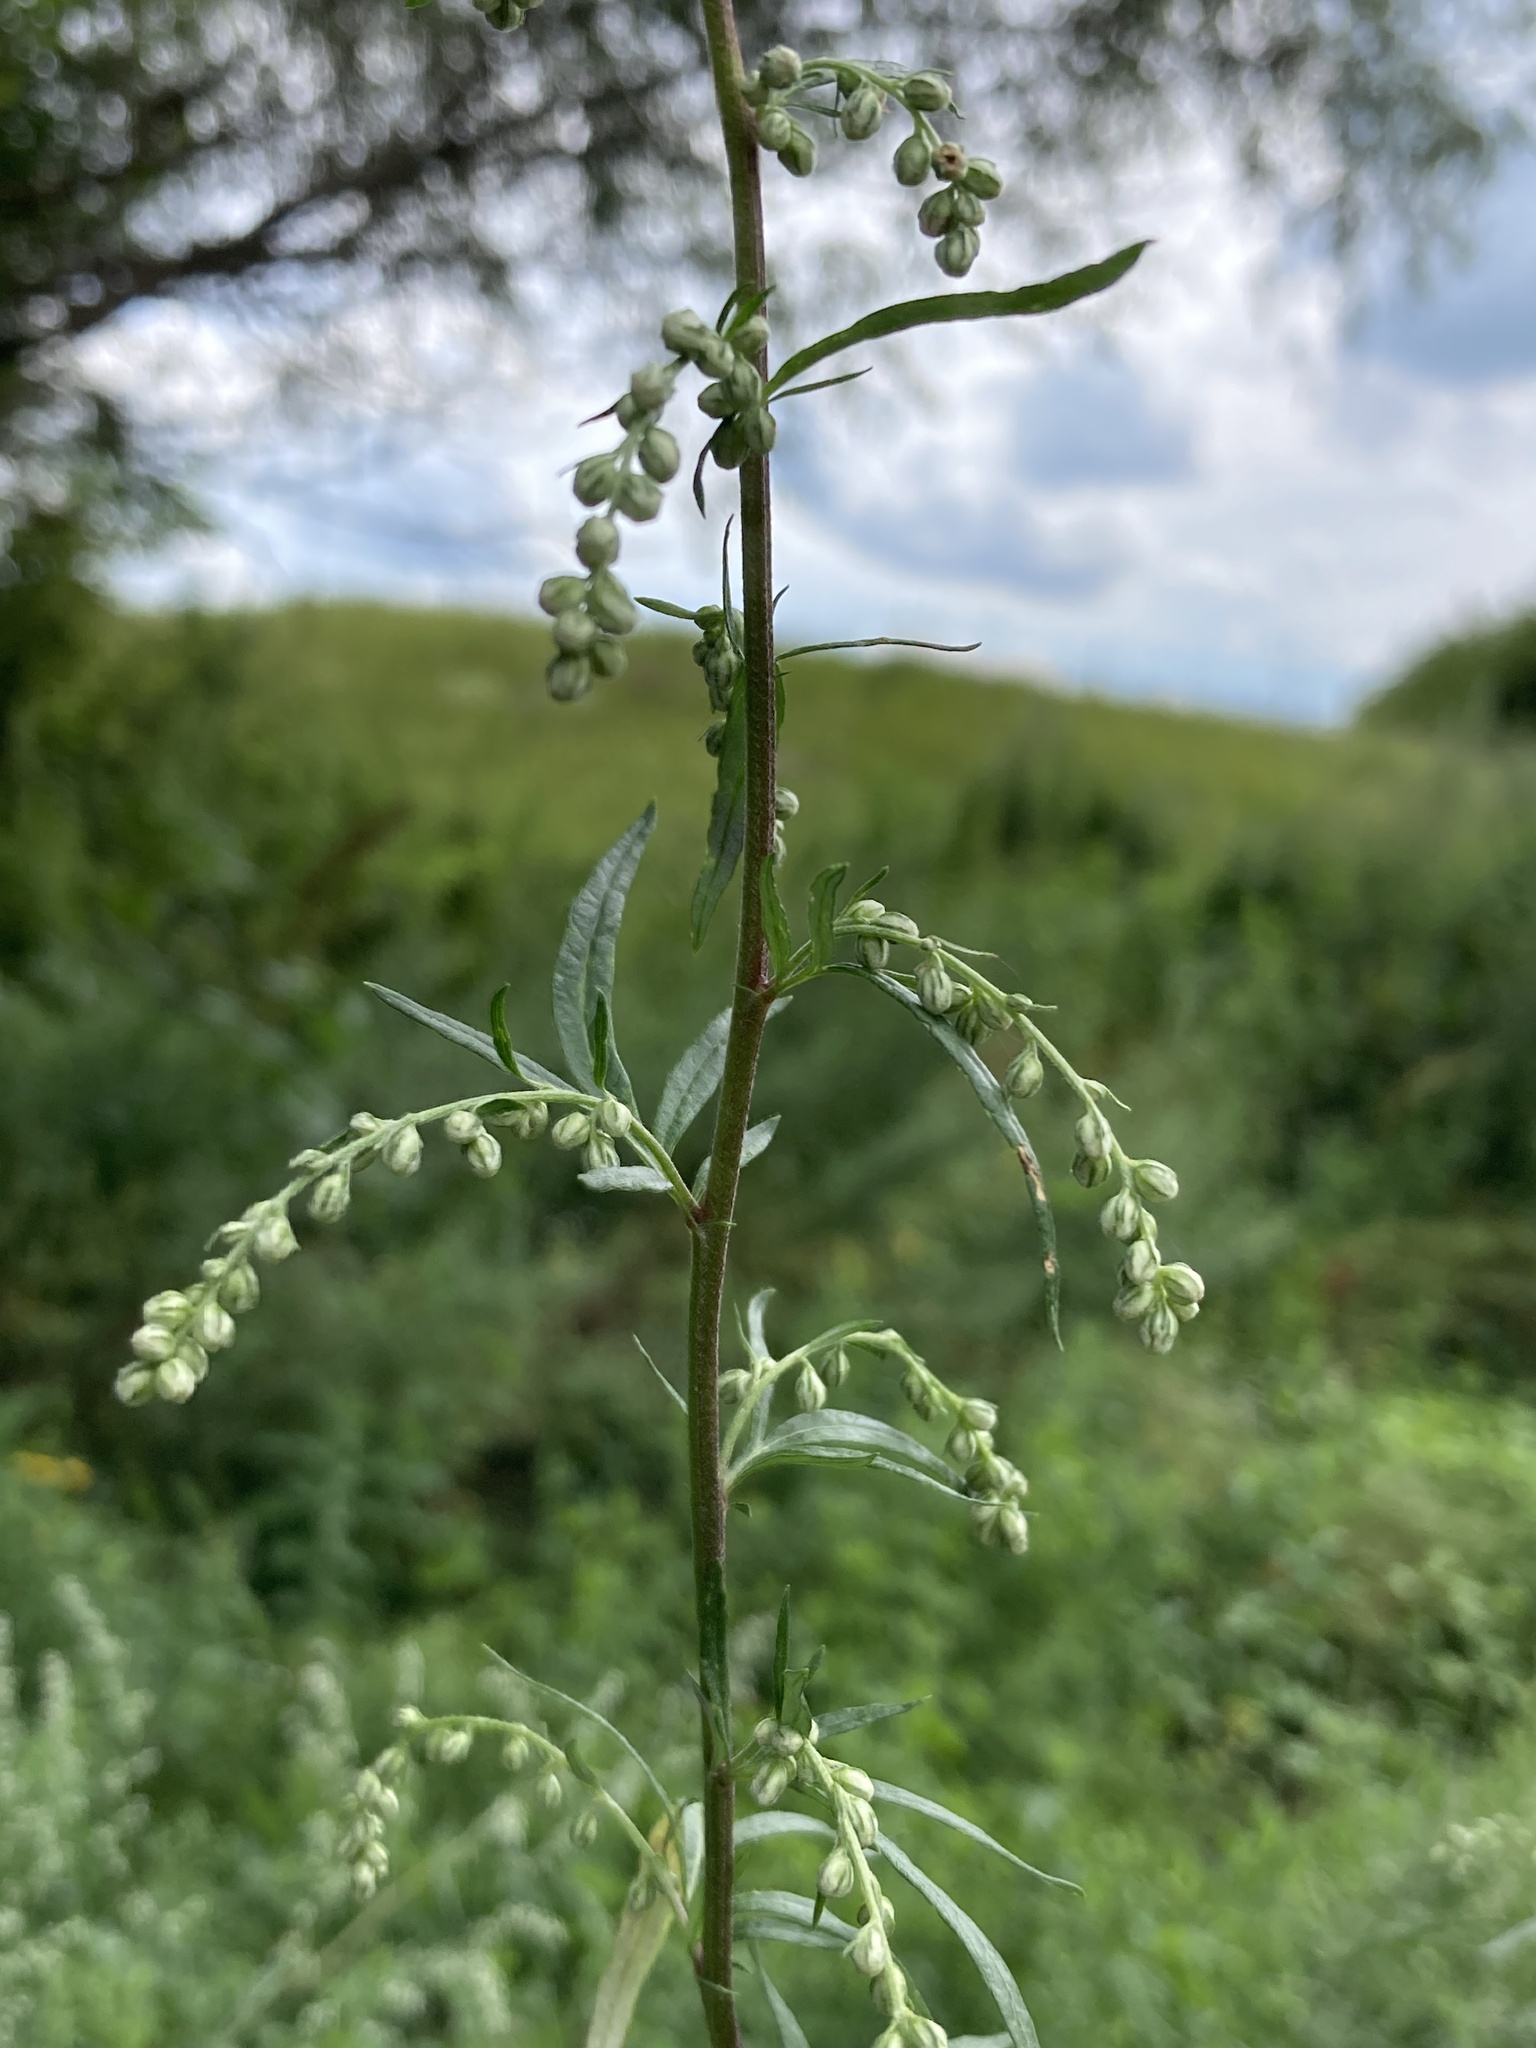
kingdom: Plantae
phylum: Tracheophyta
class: Magnoliopsida
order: Asterales
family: Asteraceae
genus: Artemisia
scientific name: Artemisia vulgaris
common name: Mugwort
